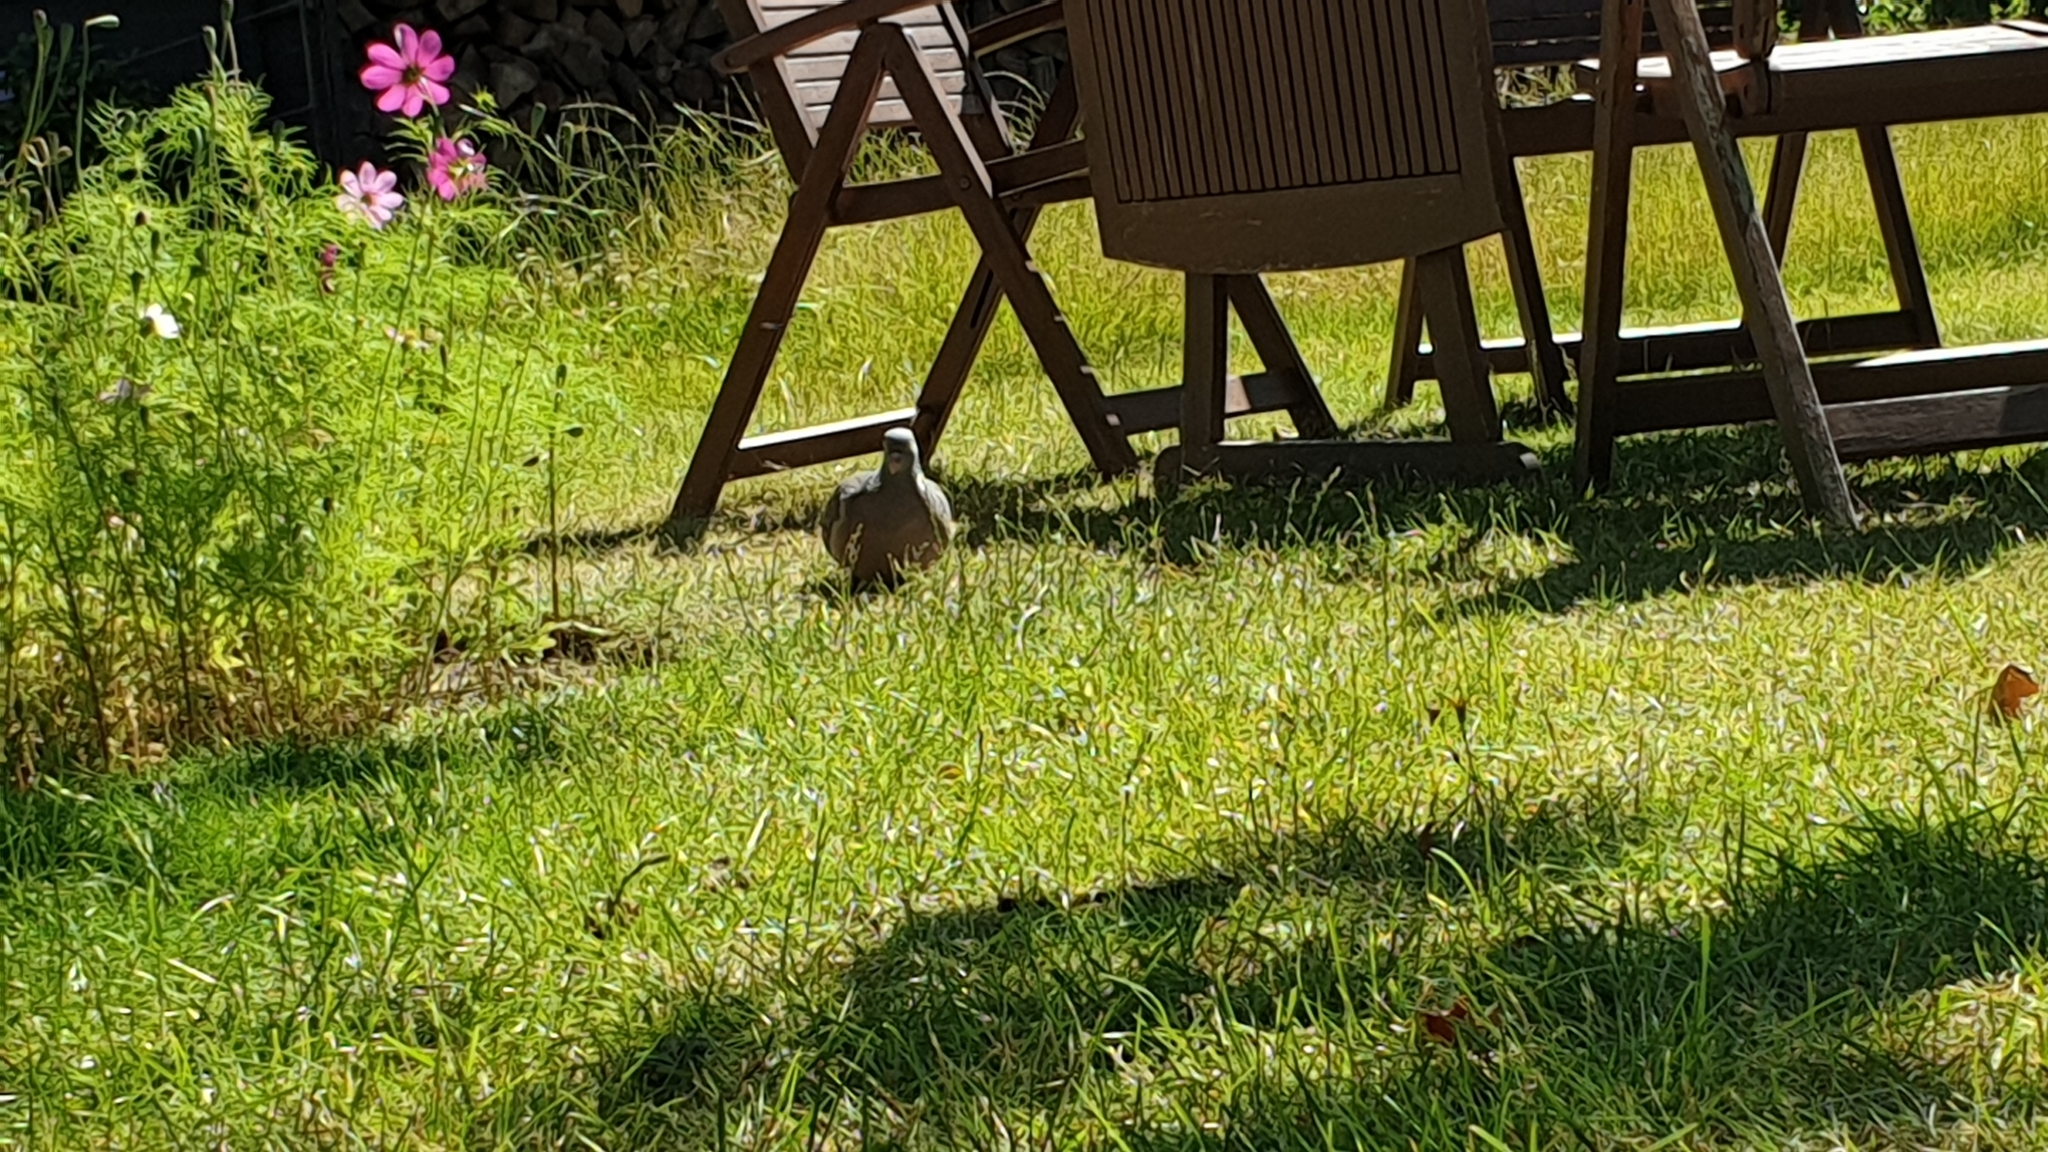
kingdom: Animalia
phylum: Chordata
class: Aves
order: Columbiformes
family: Columbidae
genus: Columba
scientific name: Columba palumbus
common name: Common wood pigeon
